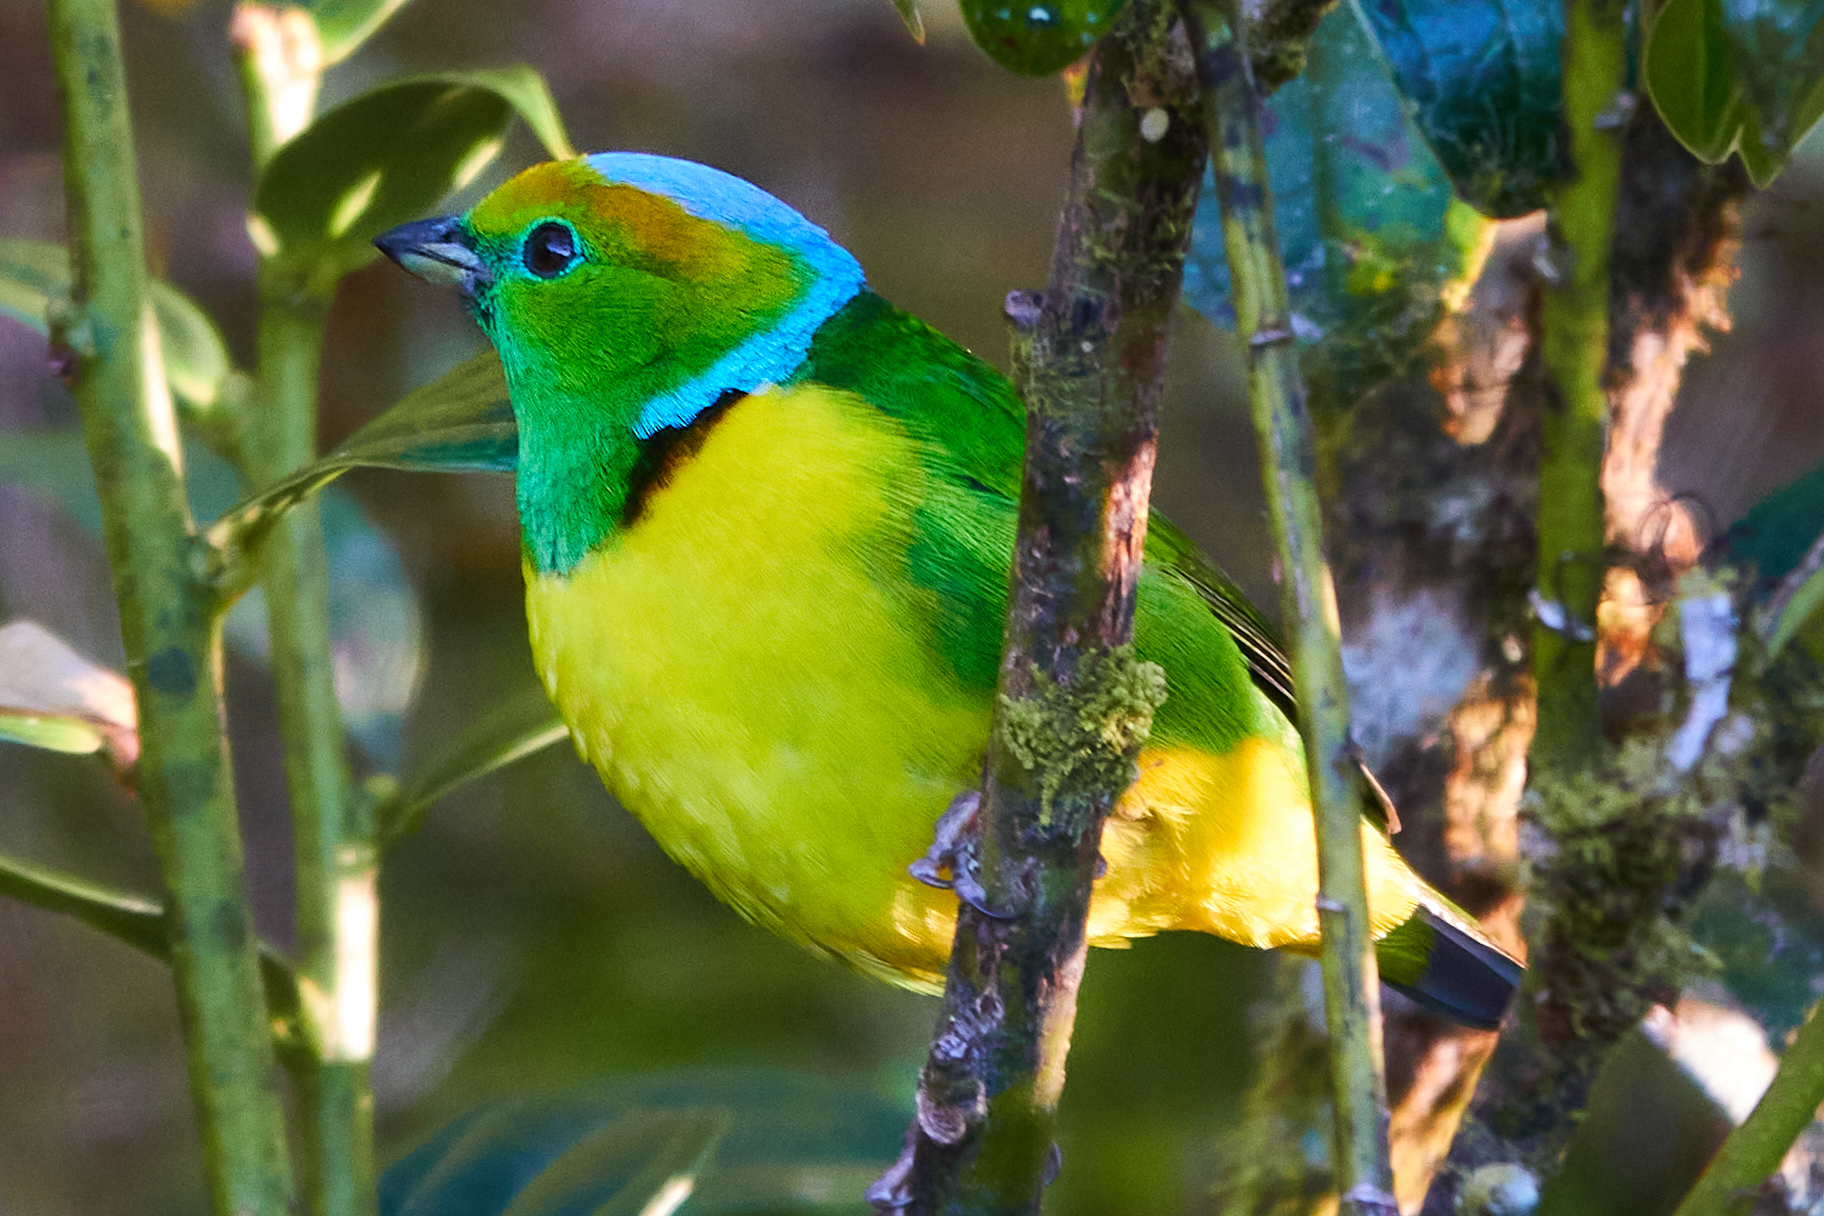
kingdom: Animalia
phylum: Chordata
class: Aves
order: Passeriformes
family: Fringillidae
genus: Chlorophonia
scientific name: Chlorophonia callophrys
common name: Golden-browed chlorophonia
